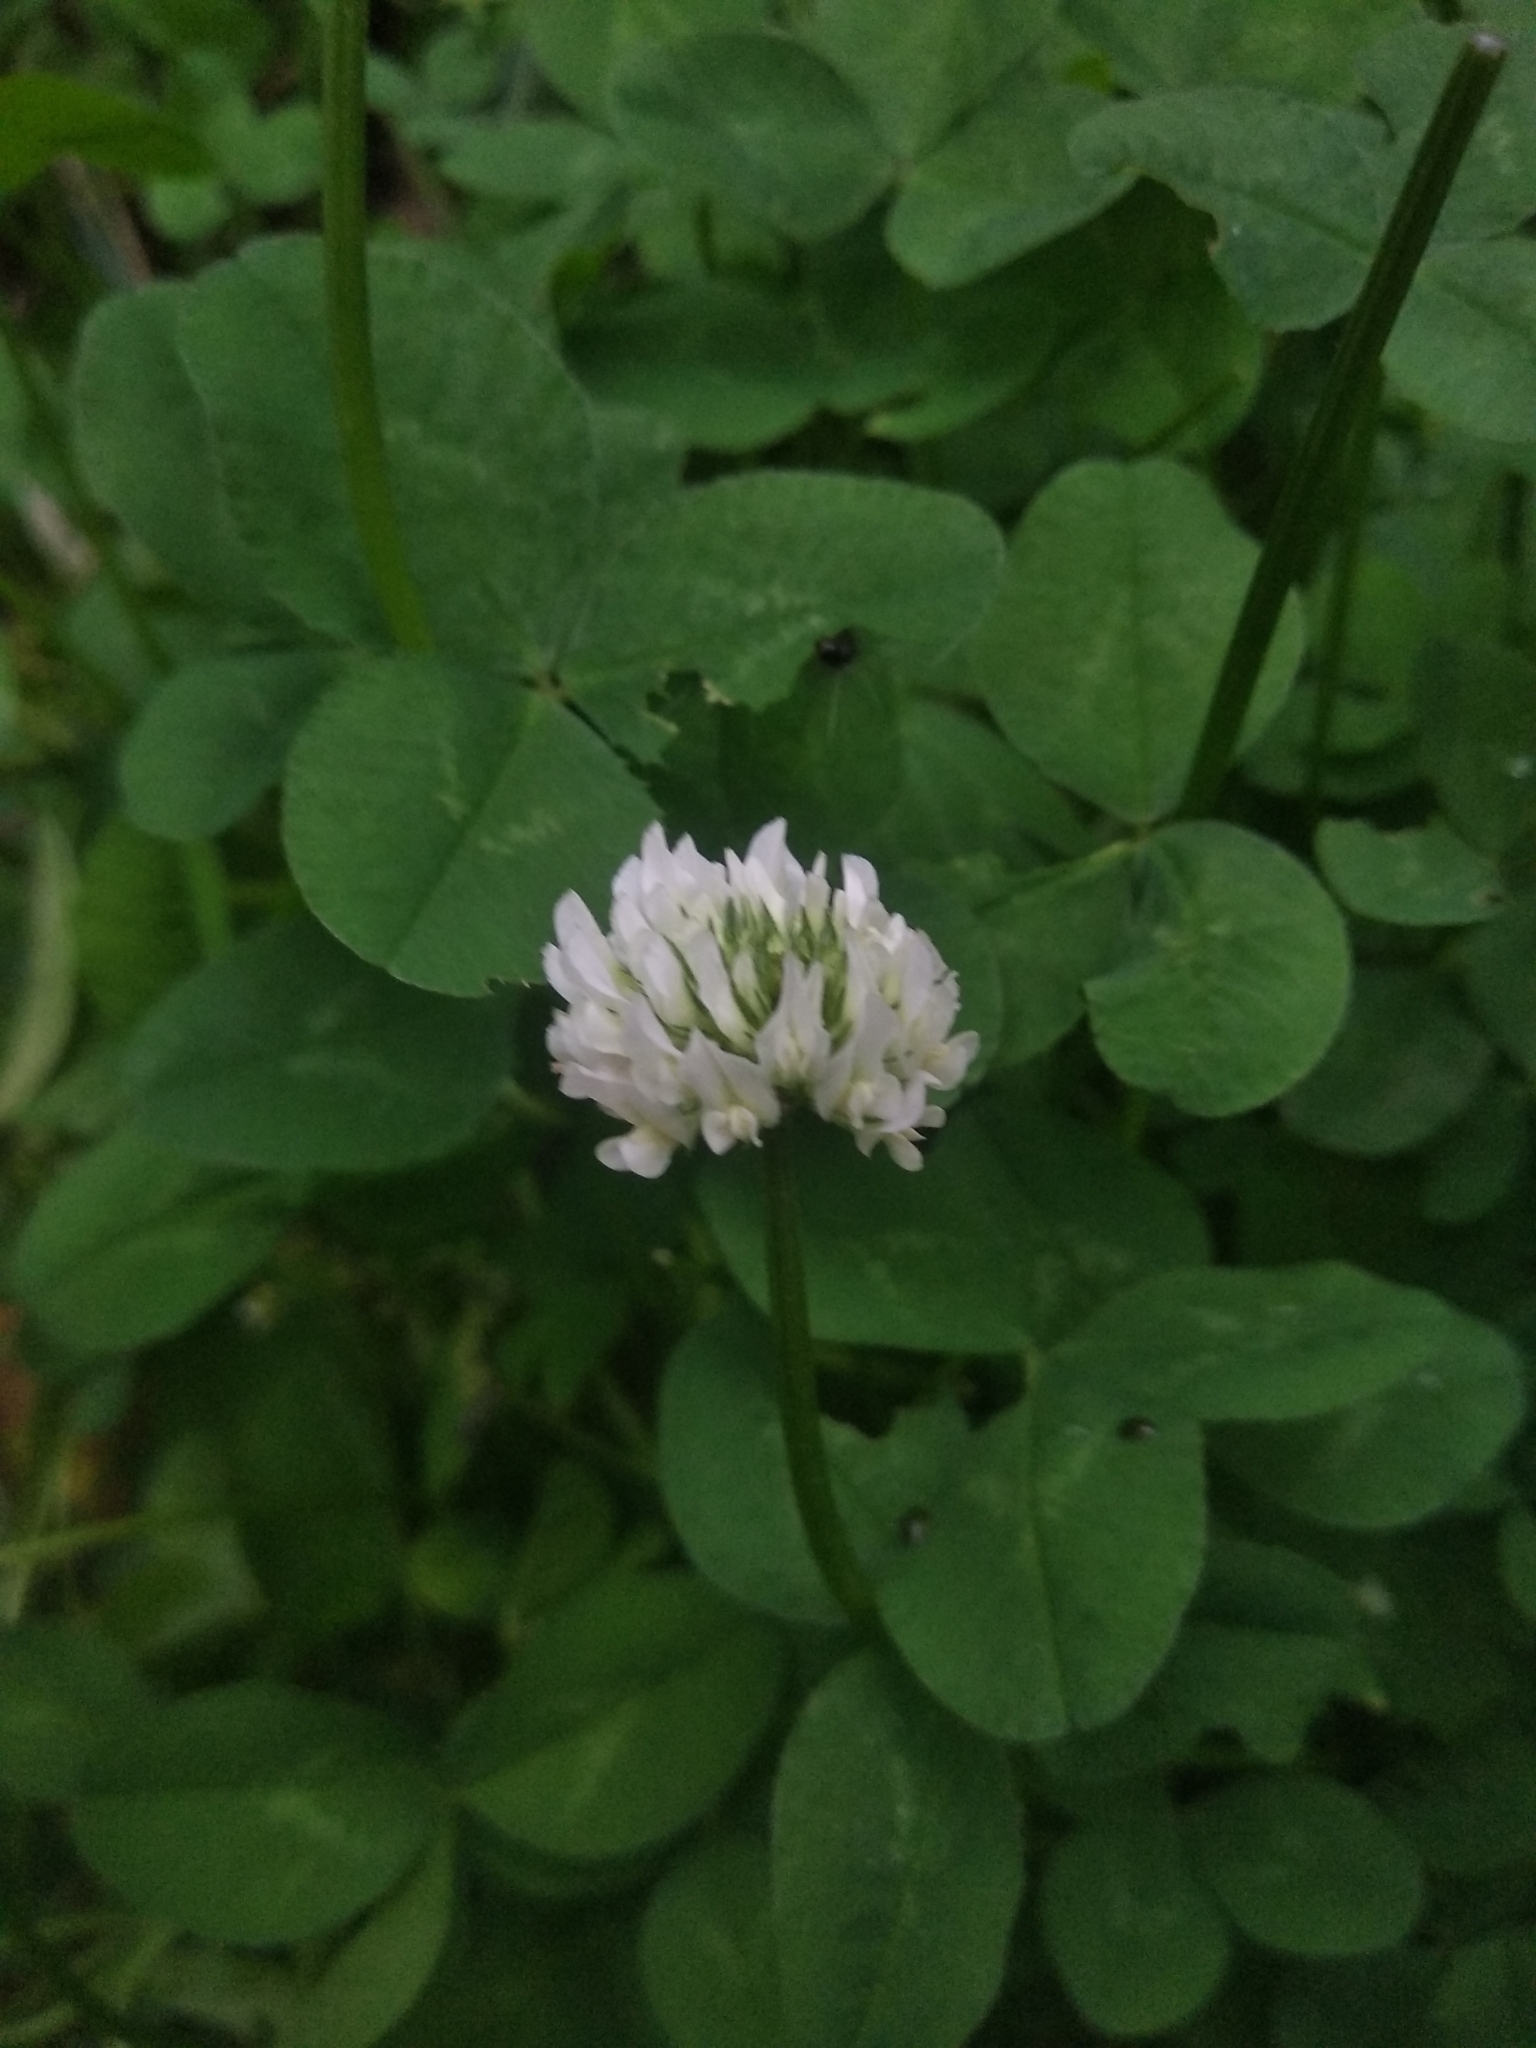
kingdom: Plantae
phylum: Tracheophyta
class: Magnoliopsida
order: Fabales
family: Fabaceae
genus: Trifolium
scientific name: Trifolium repens
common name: White clover
